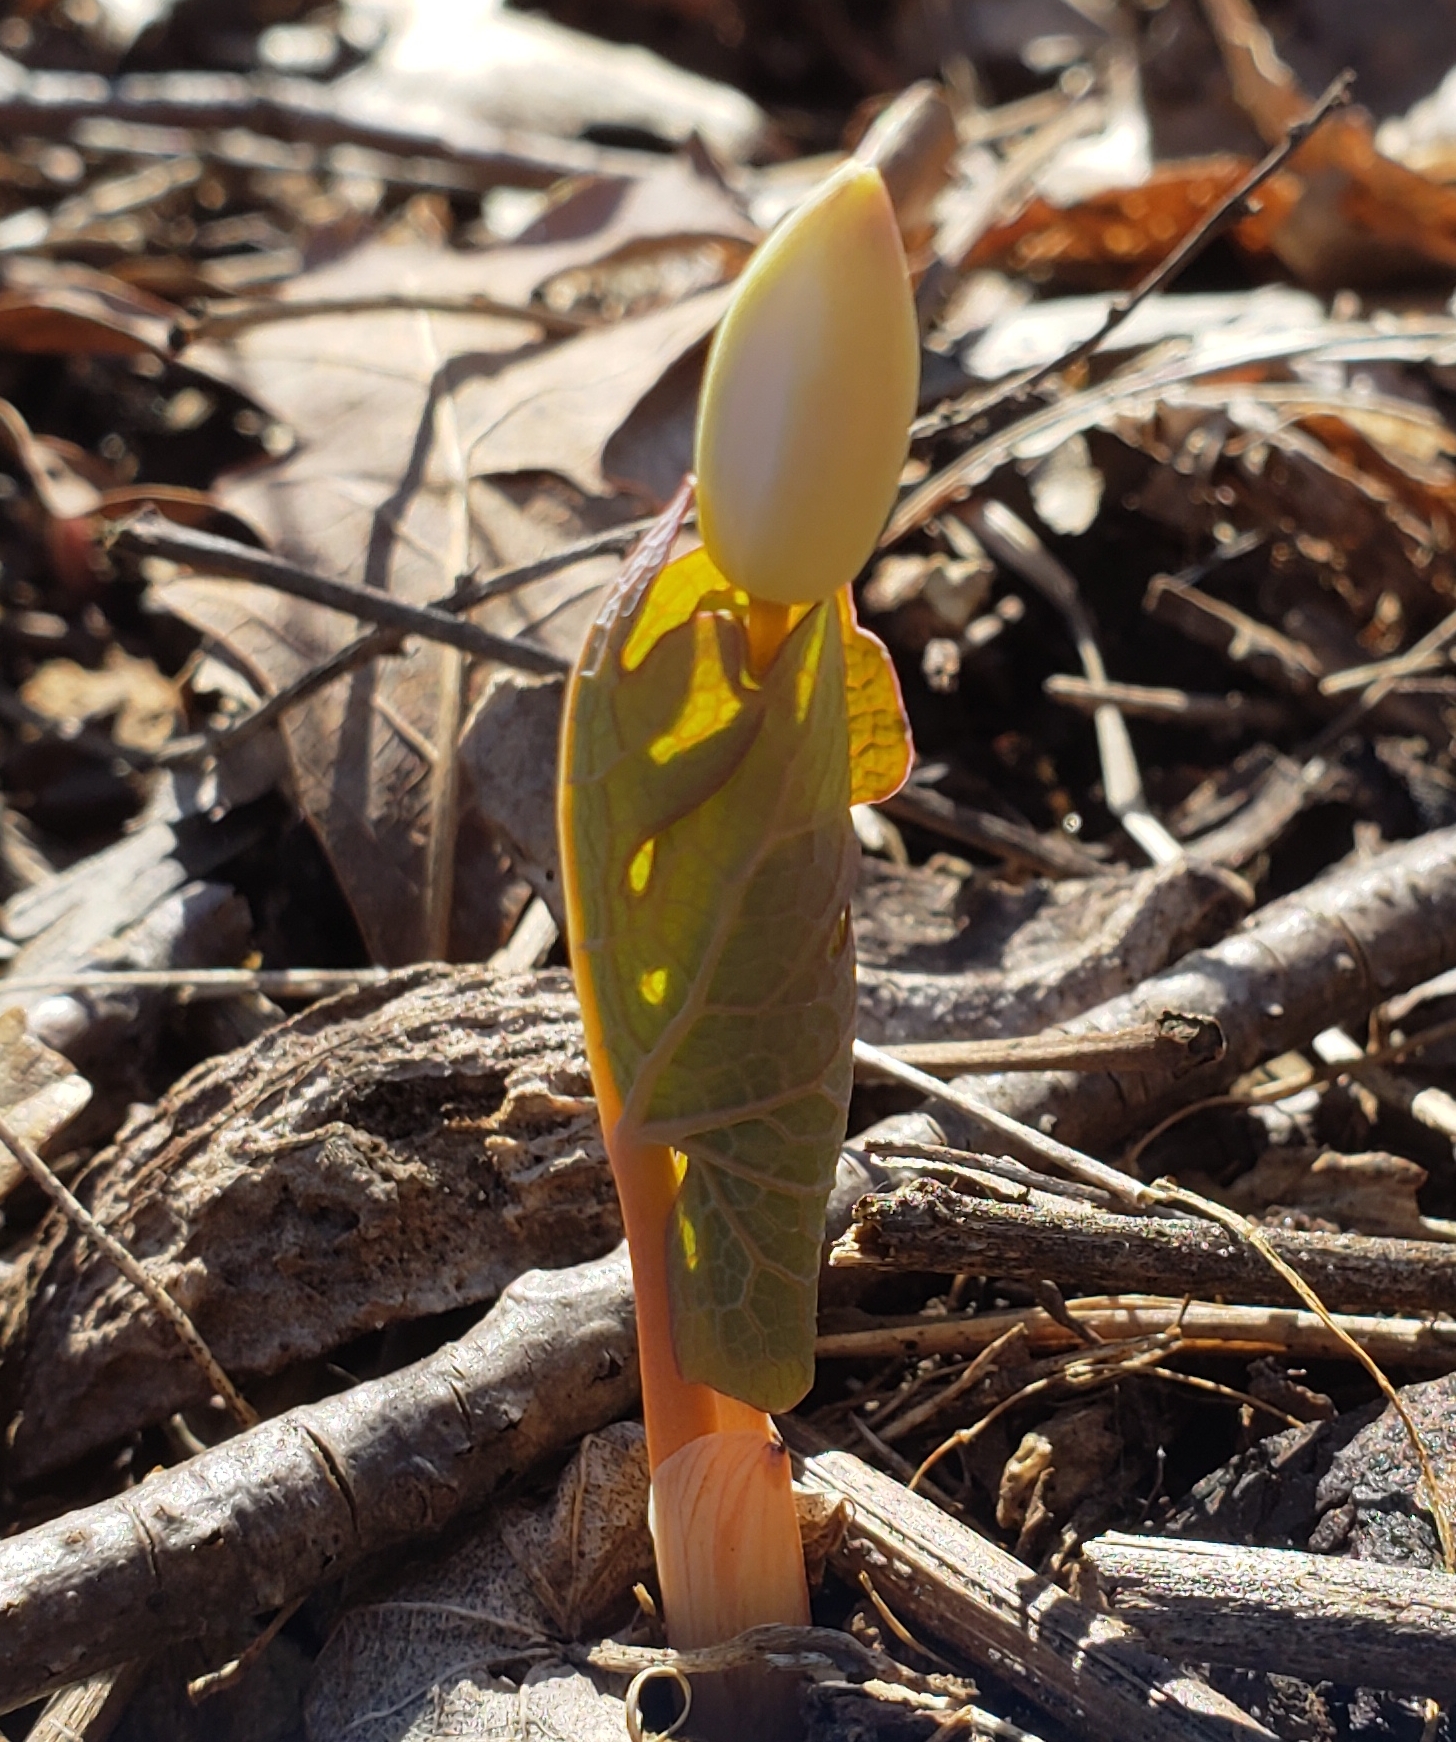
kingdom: Plantae
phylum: Tracheophyta
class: Magnoliopsida
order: Ranunculales
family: Papaveraceae
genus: Sanguinaria
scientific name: Sanguinaria canadensis
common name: Bloodroot
